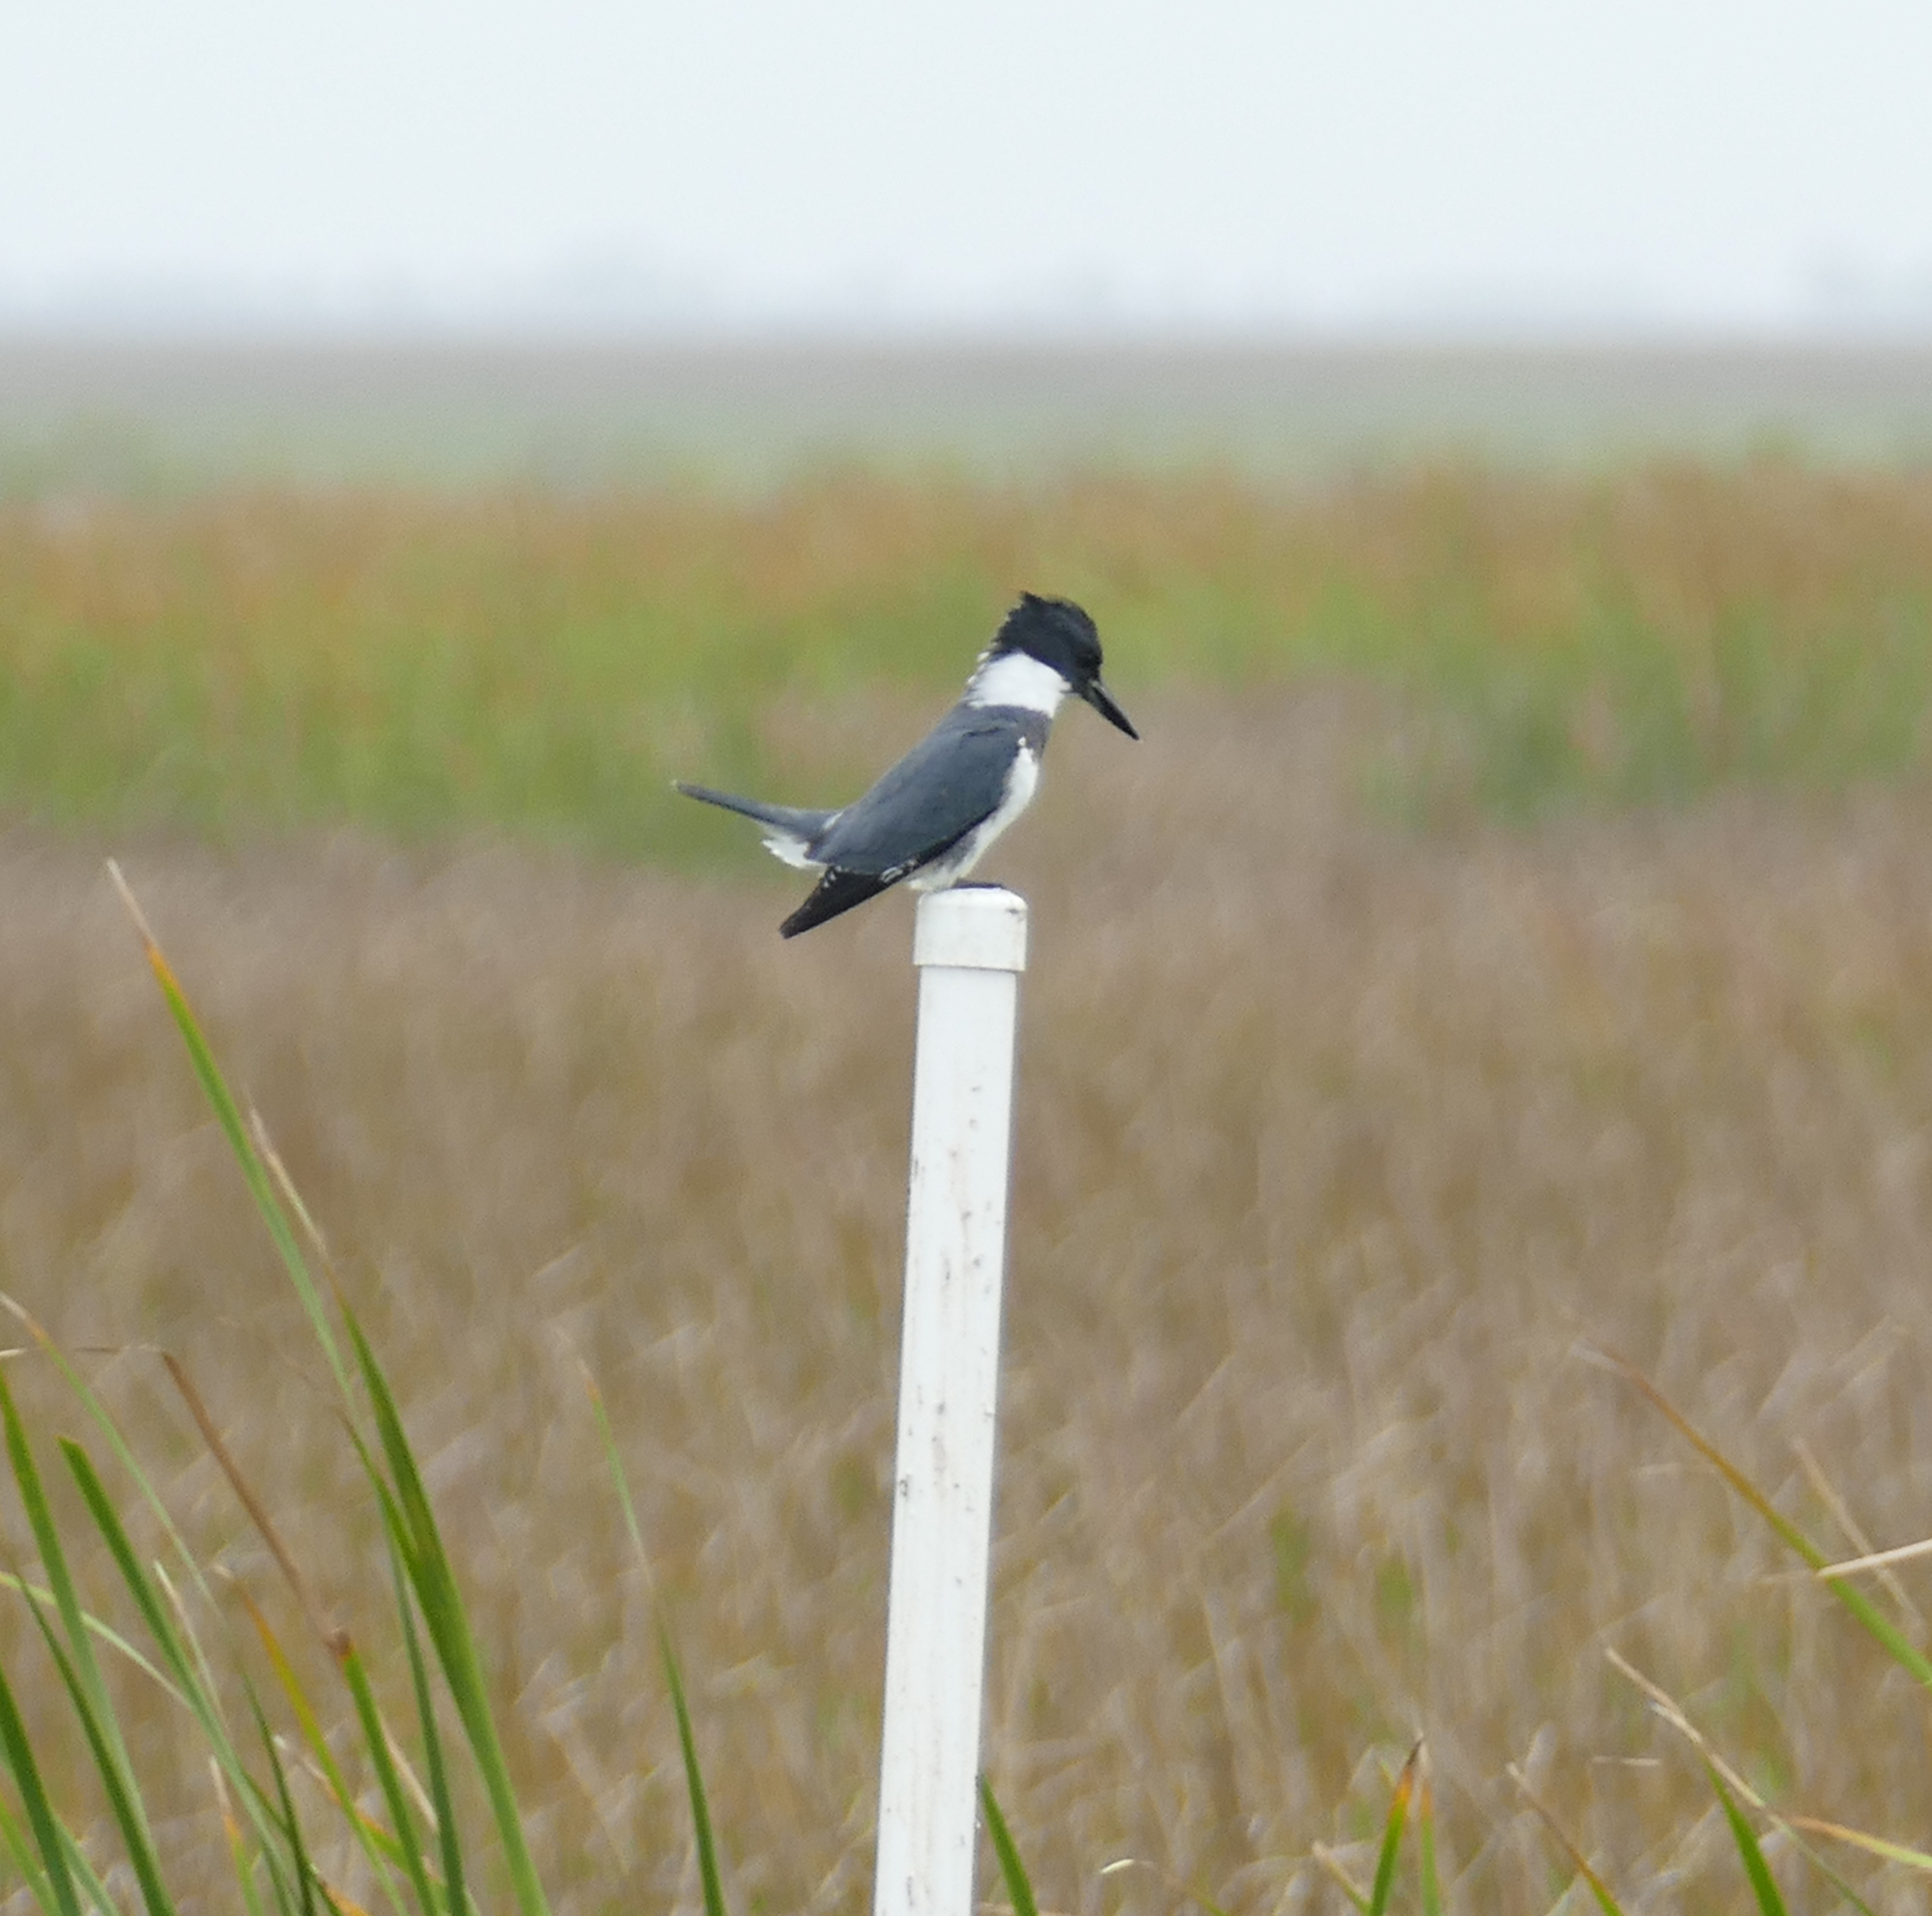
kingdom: Animalia
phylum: Chordata
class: Aves
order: Coraciiformes
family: Alcedinidae
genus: Megaceryle
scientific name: Megaceryle alcyon
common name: Belted kingfisher
